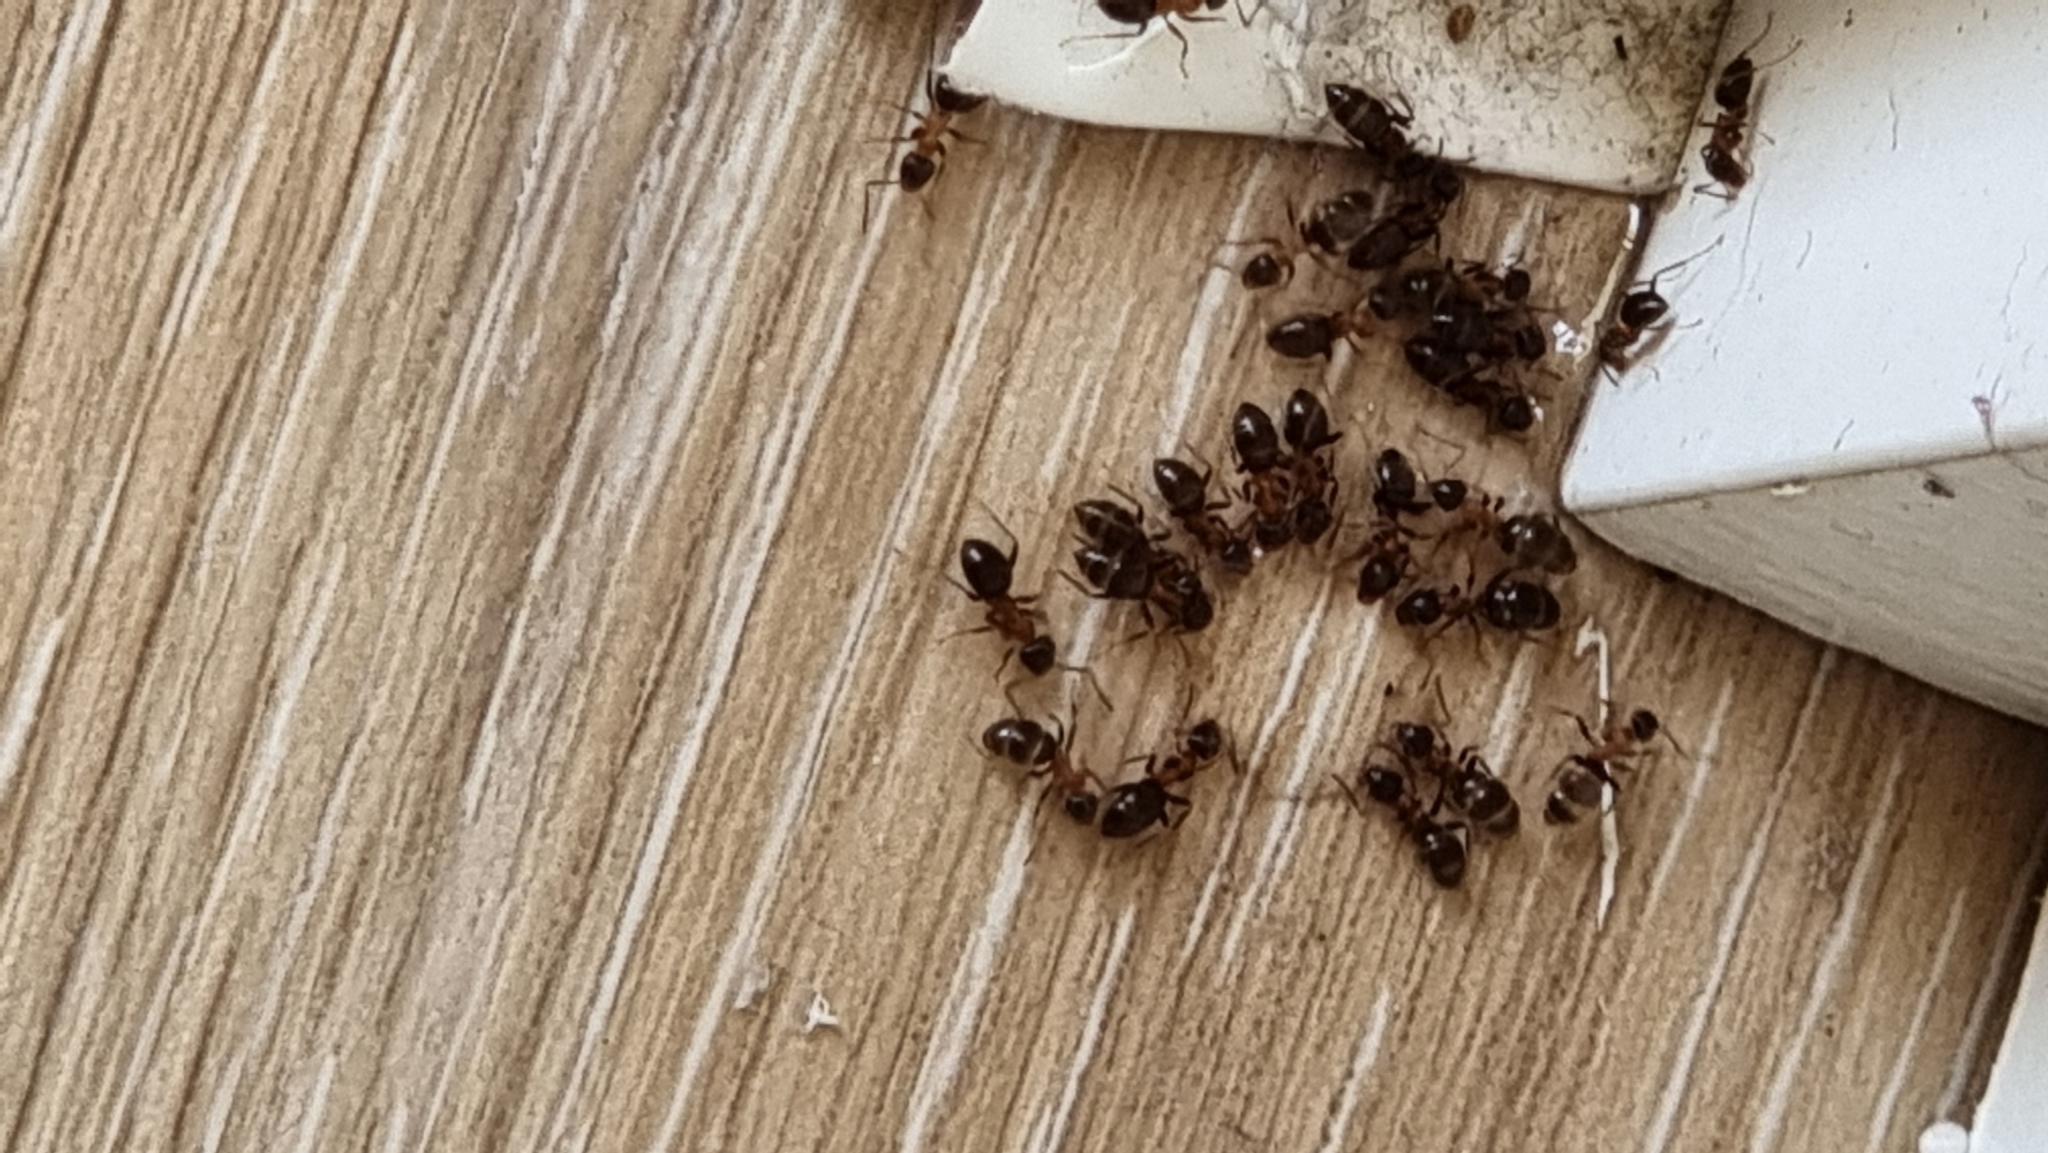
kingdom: Animalia
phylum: Arthropoda
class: Insecta
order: Hymenoptera
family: Formicidae
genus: Lasius
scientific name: Lasius emarginatus
